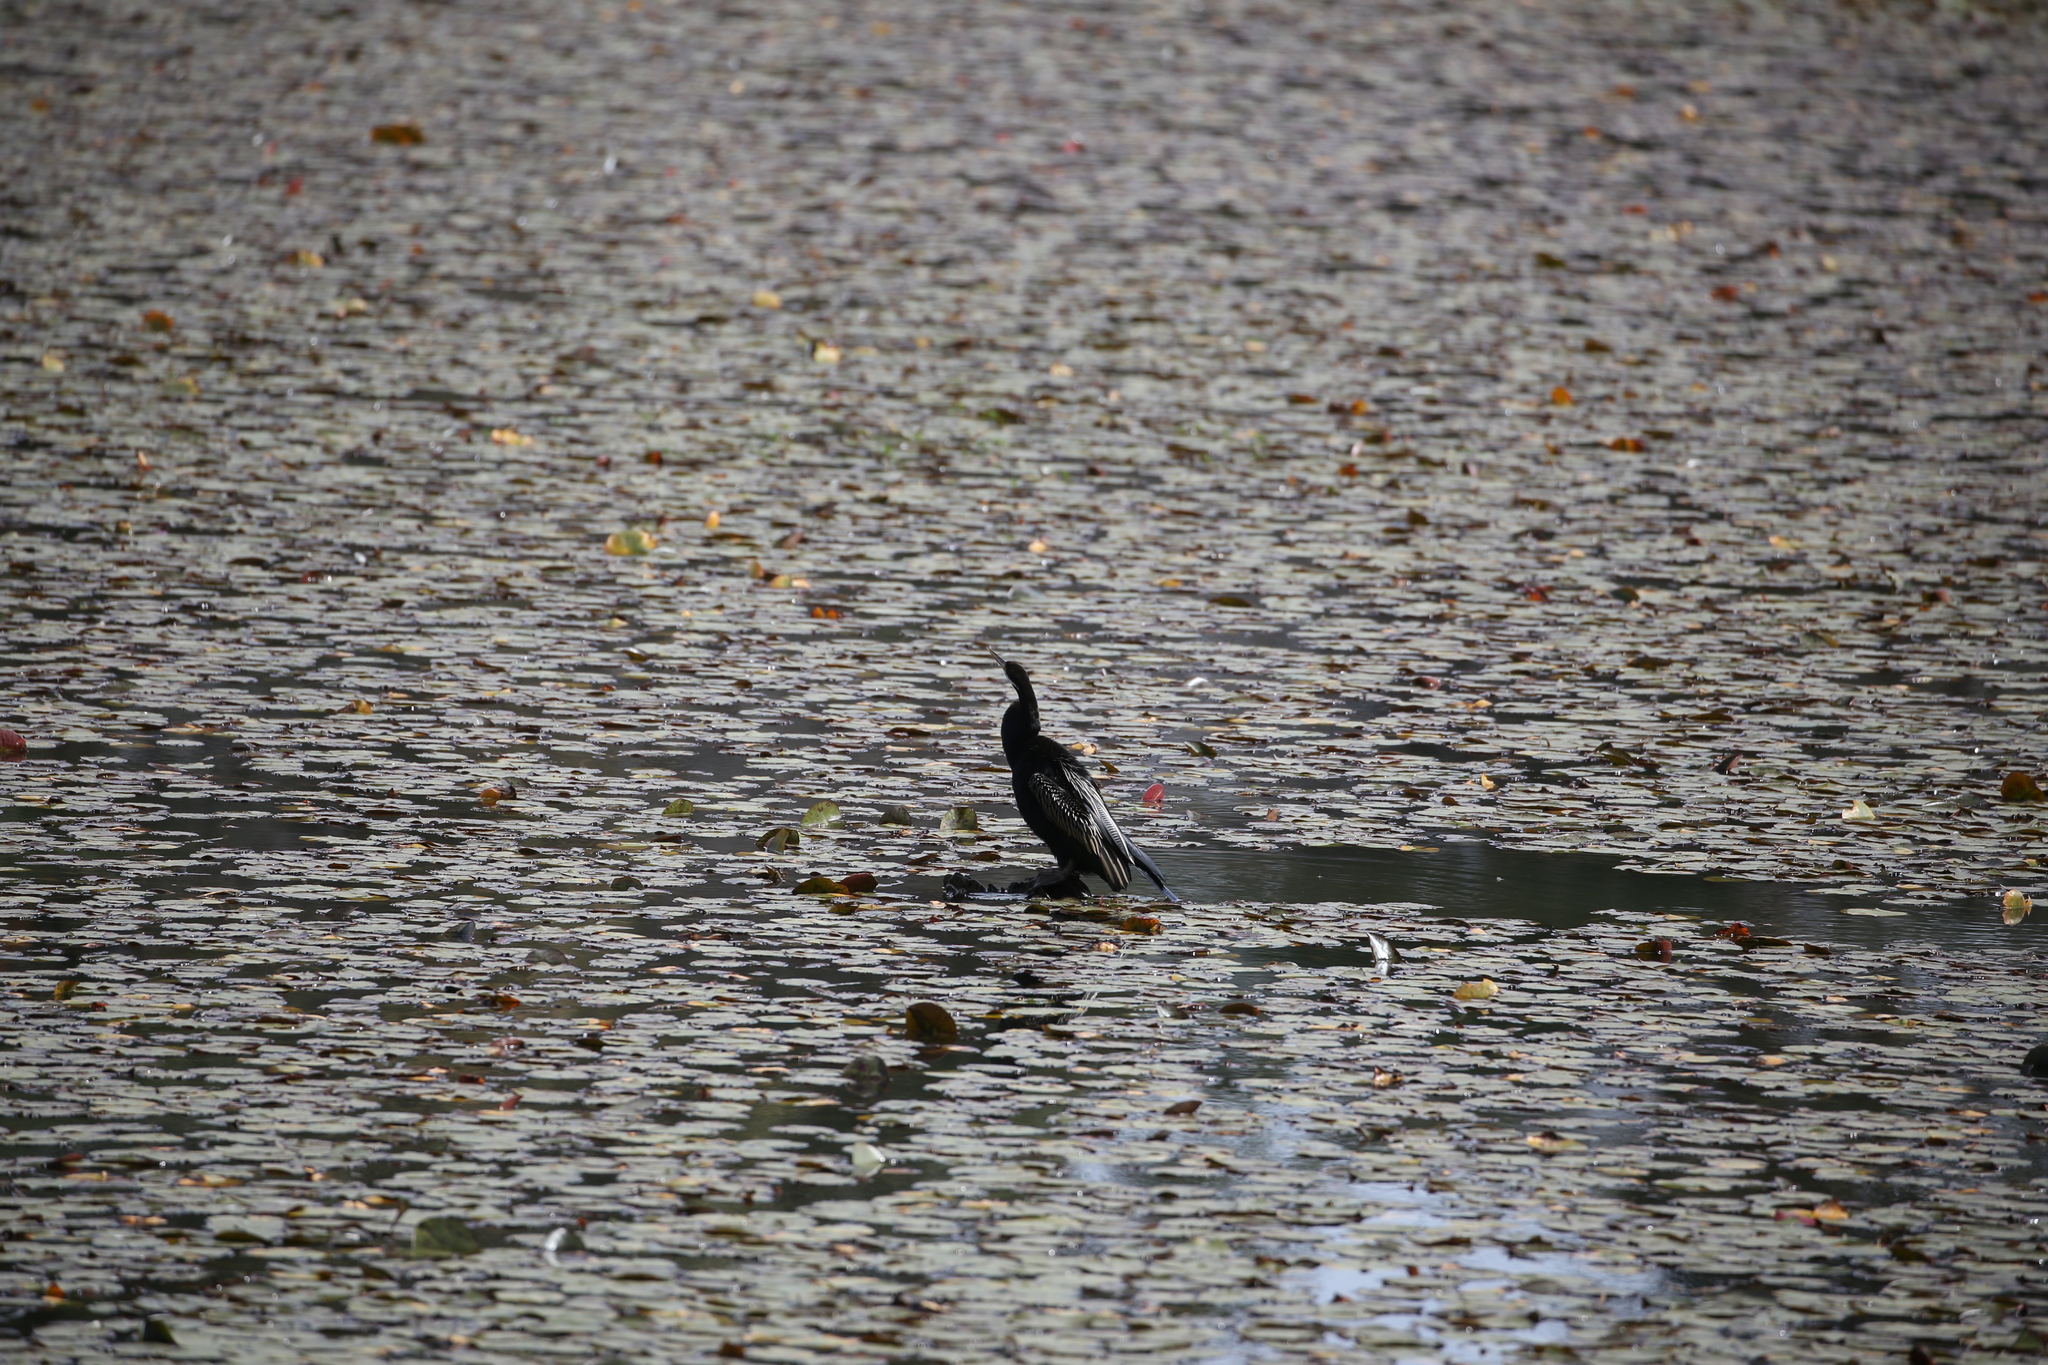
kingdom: Animalia
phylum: Chordata
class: Aves
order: Suliformes
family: Anhingidae
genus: Anhinga
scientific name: Anhinga novaehollandiae
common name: Australasian darter
